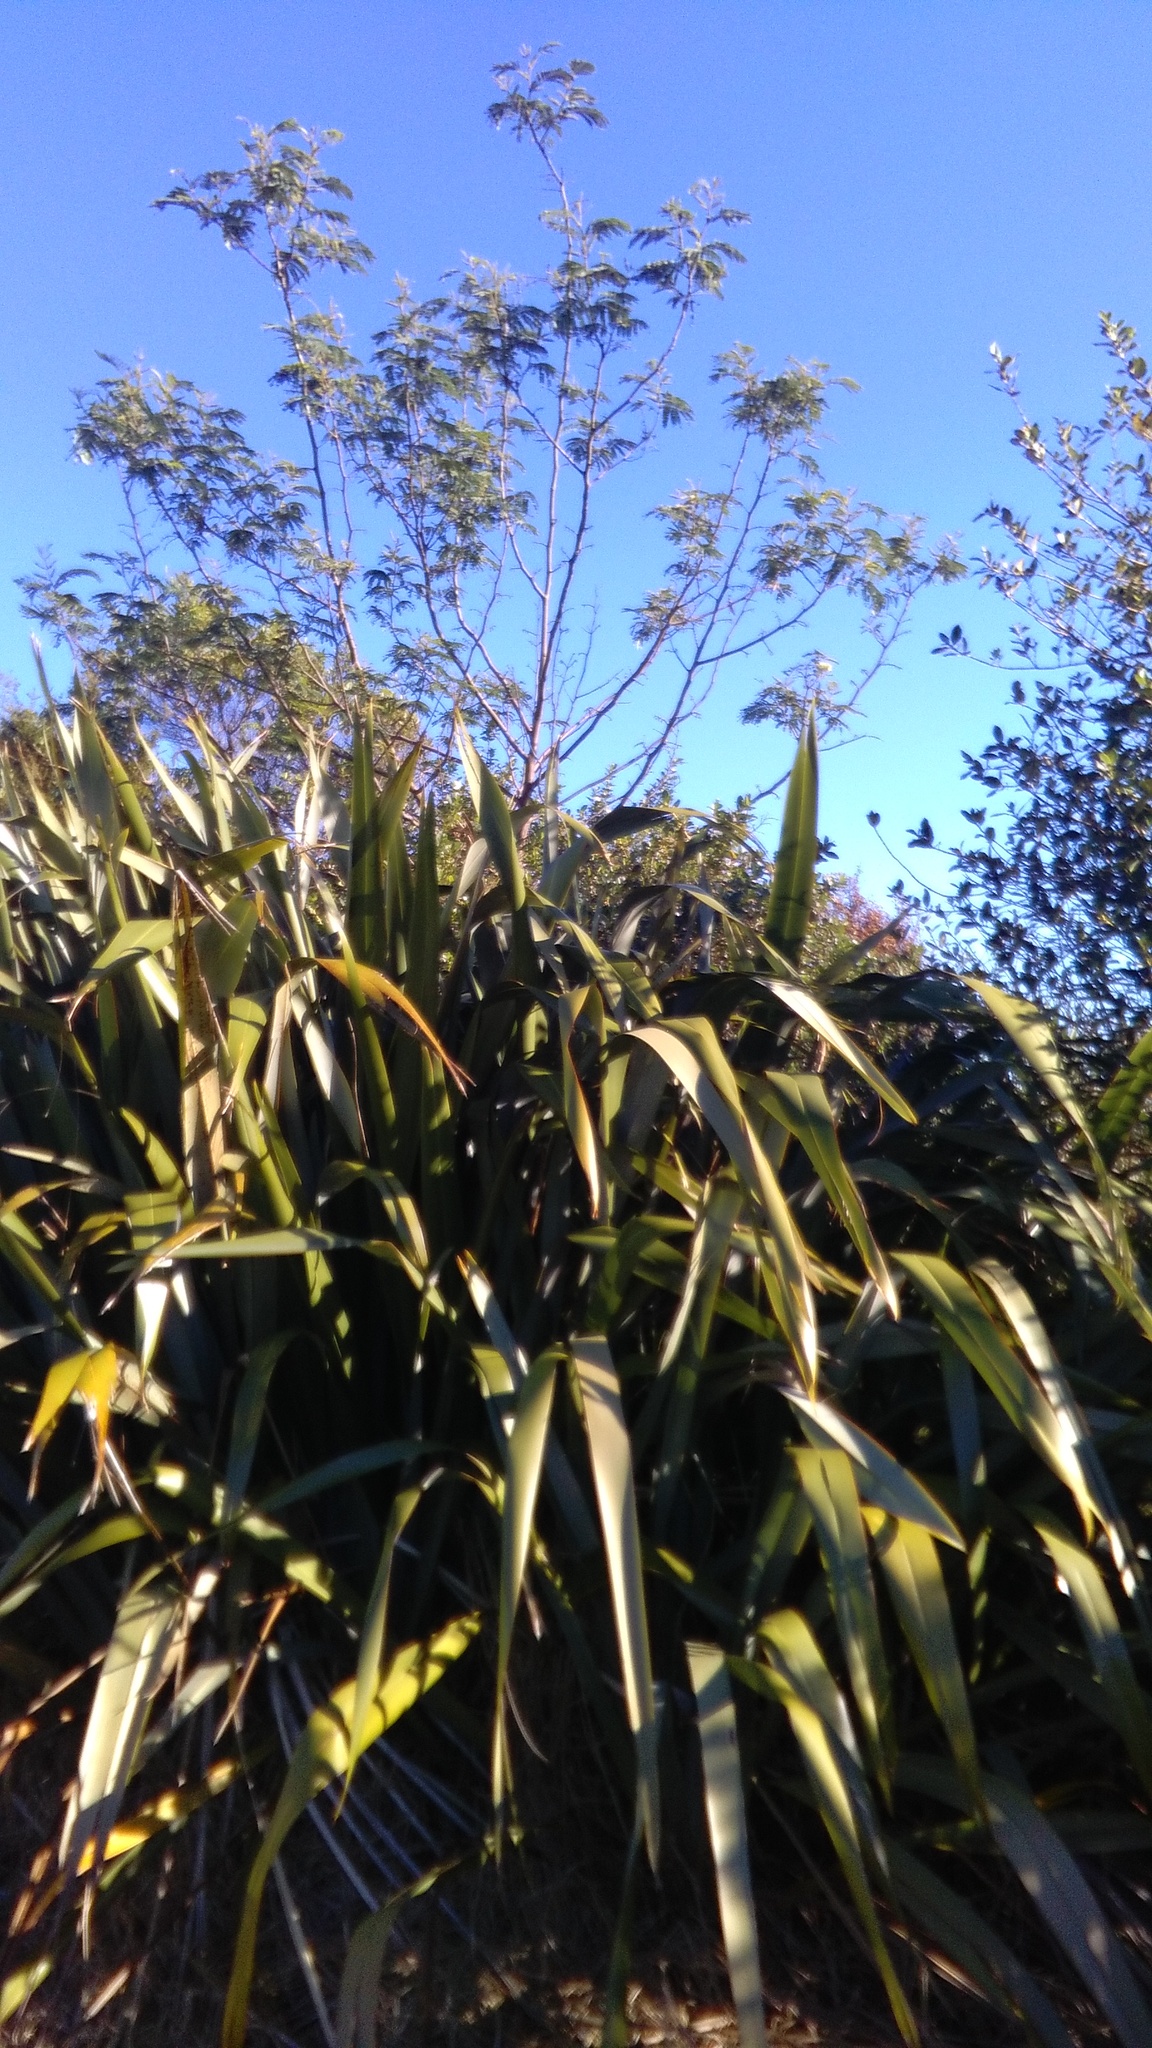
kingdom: Plantae
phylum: Tracheophyta
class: Magnoliopsida
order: Fabales
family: Fabaceae
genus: Paraserianthes
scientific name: Paraserianthes lophantha
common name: Plume albizia
